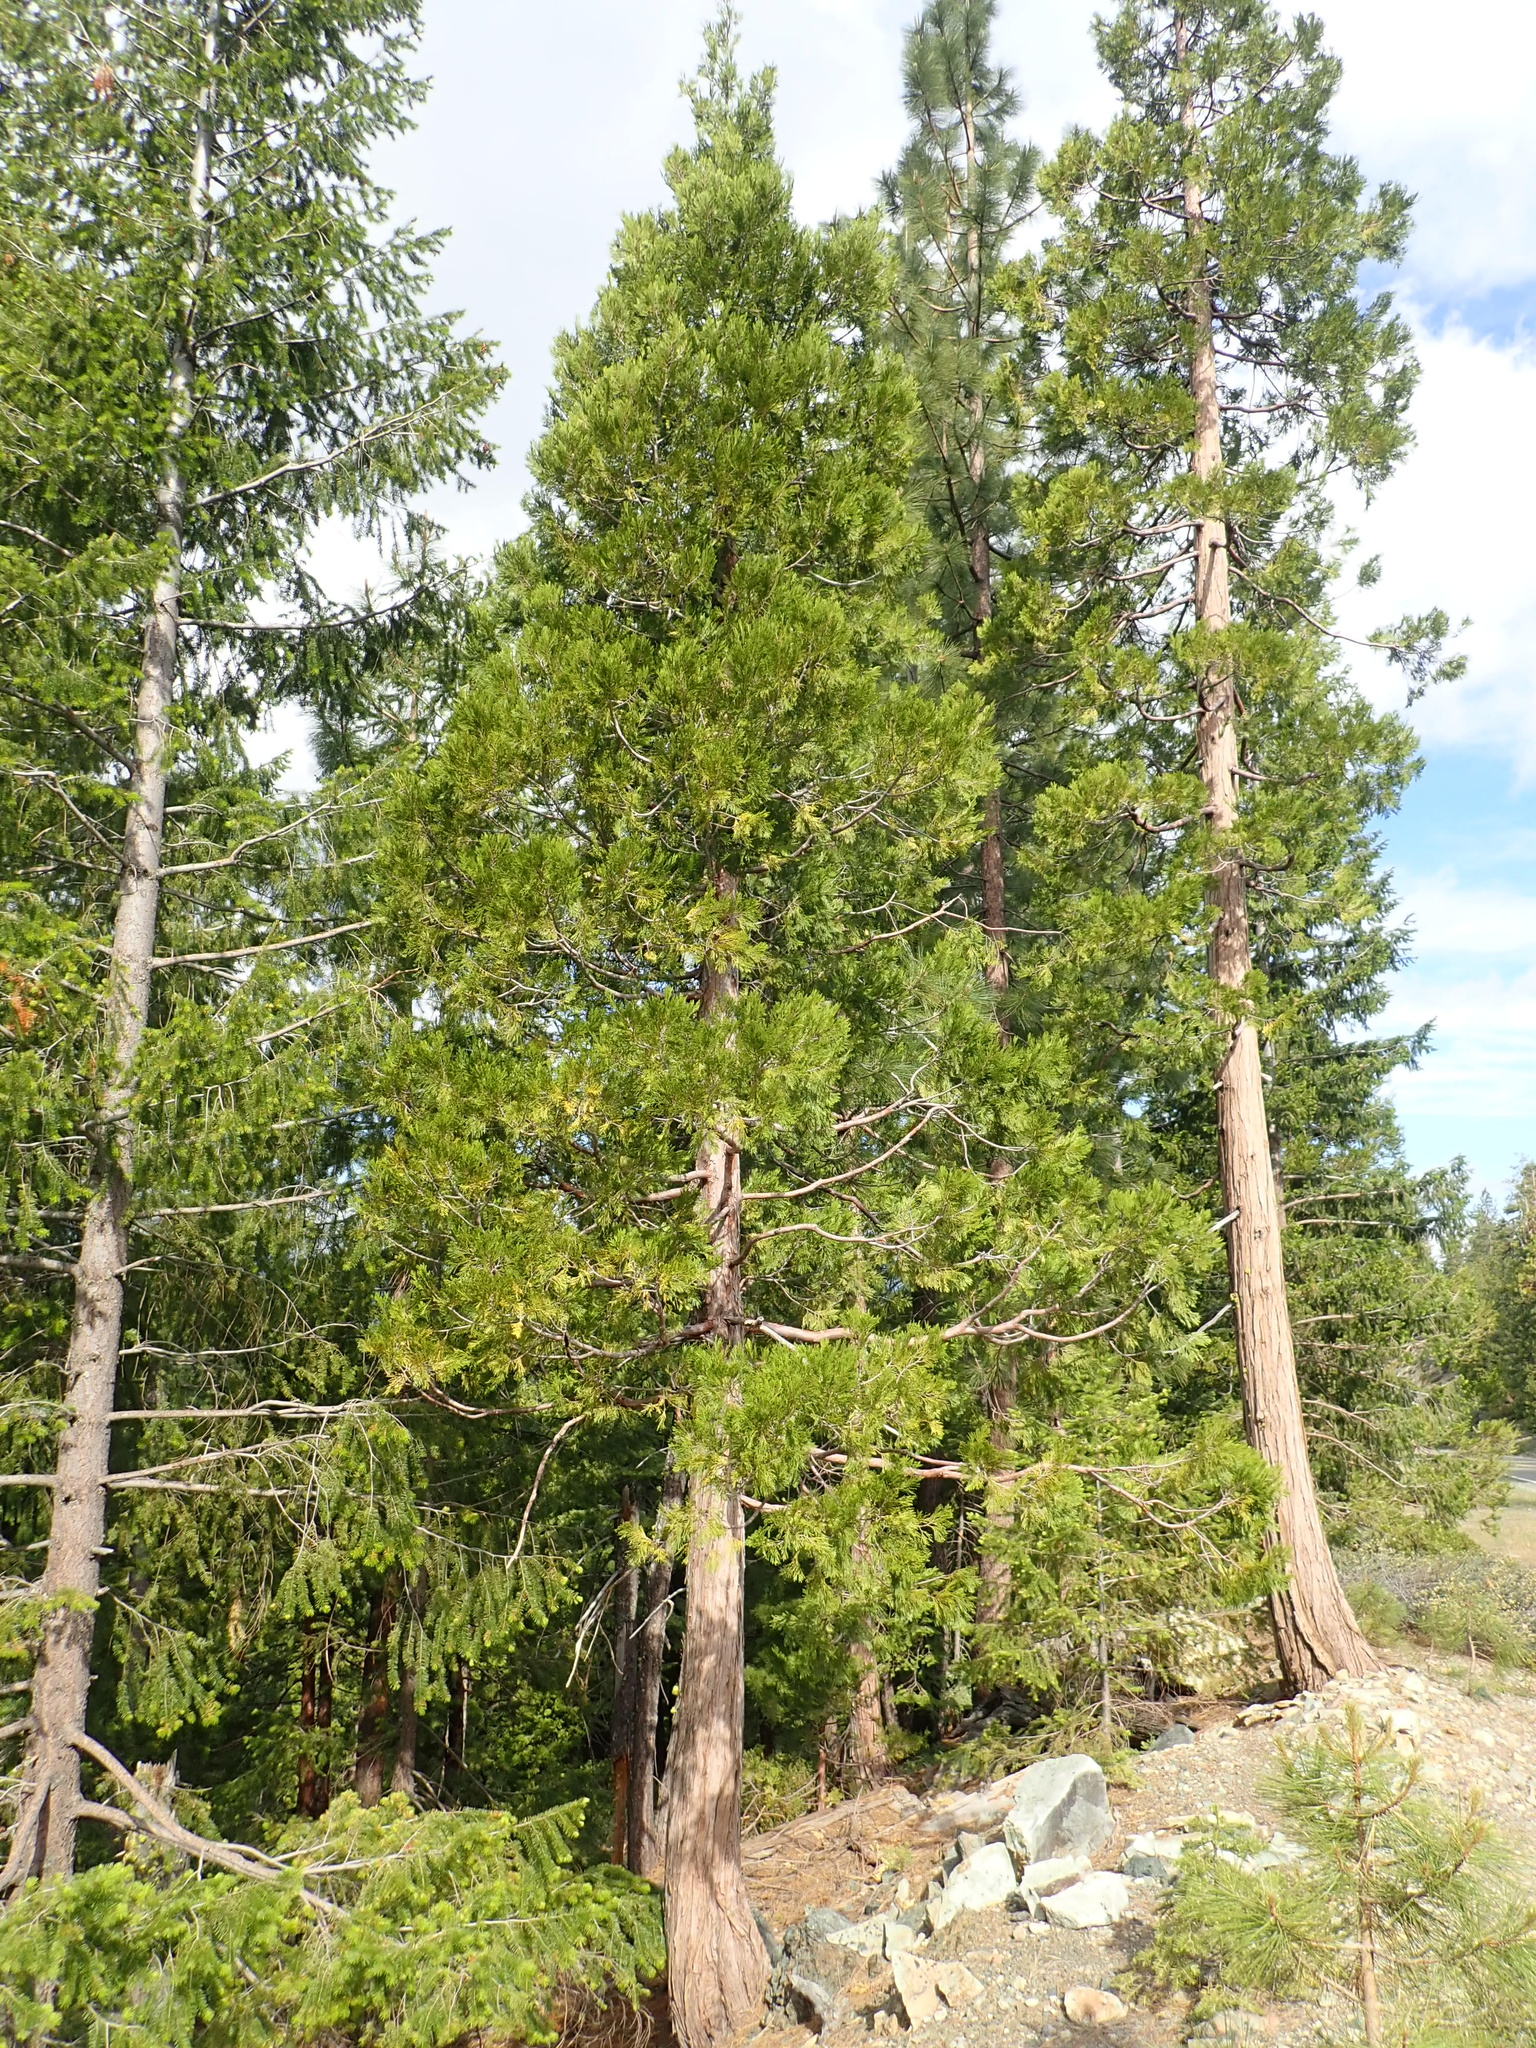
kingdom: Plantae
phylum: Tracheophyta
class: Pinopsida
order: Pinales
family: Cupressaceae
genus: Calocedrus
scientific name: Calocedrus decurrens
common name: Californian incense-cedar
